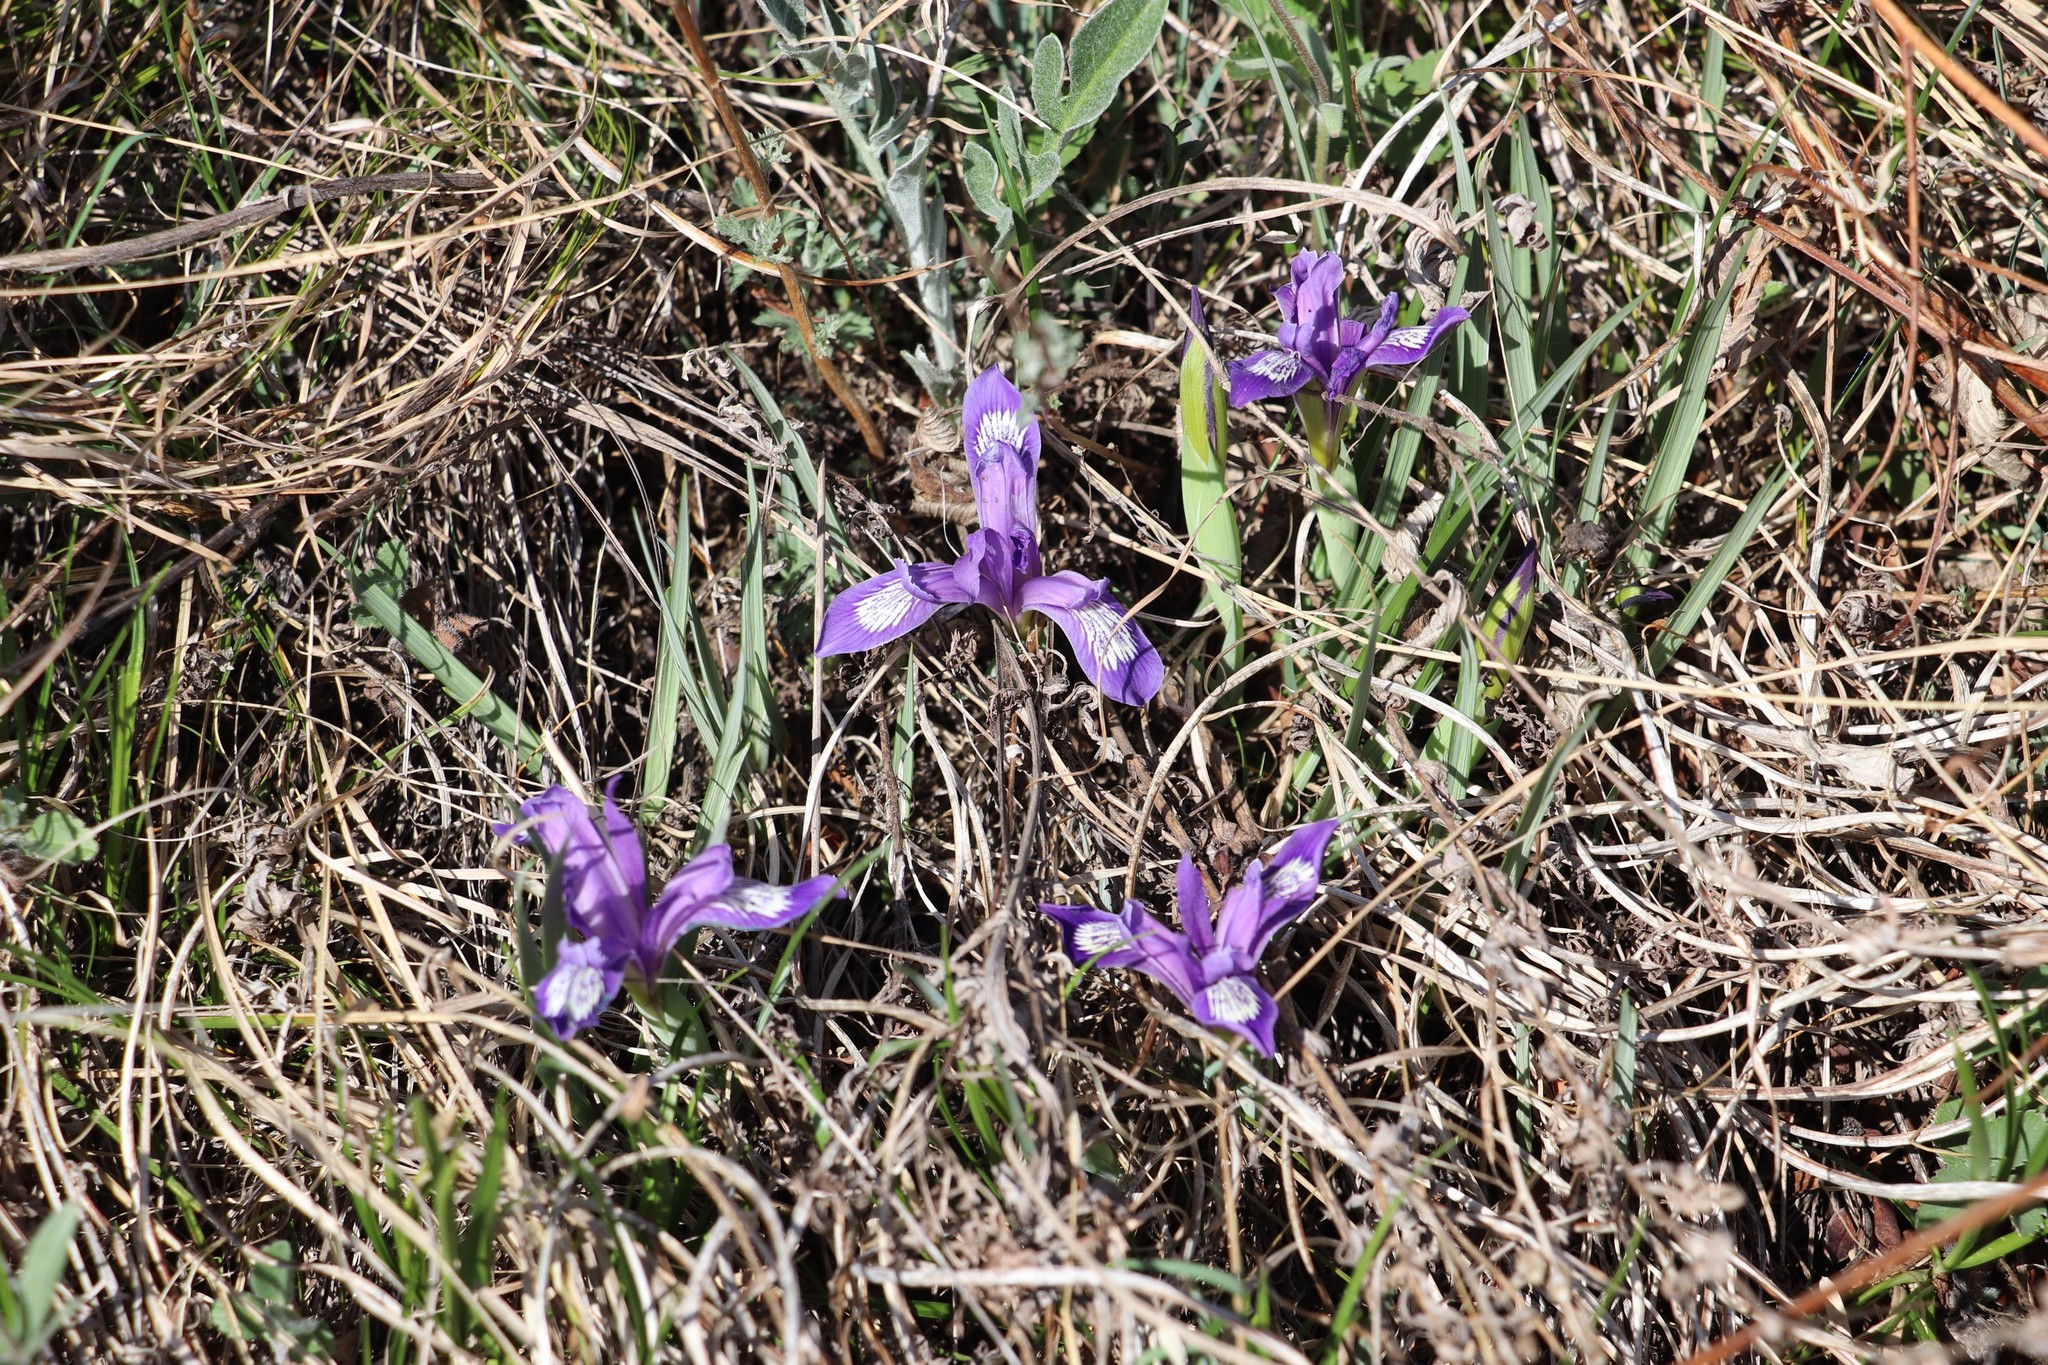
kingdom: Plantae
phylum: Tracheophyta
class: Liliopsida
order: Asparagales
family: Iridaceae
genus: Iris
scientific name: Iris ruthenica
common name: Purple-bract iris
